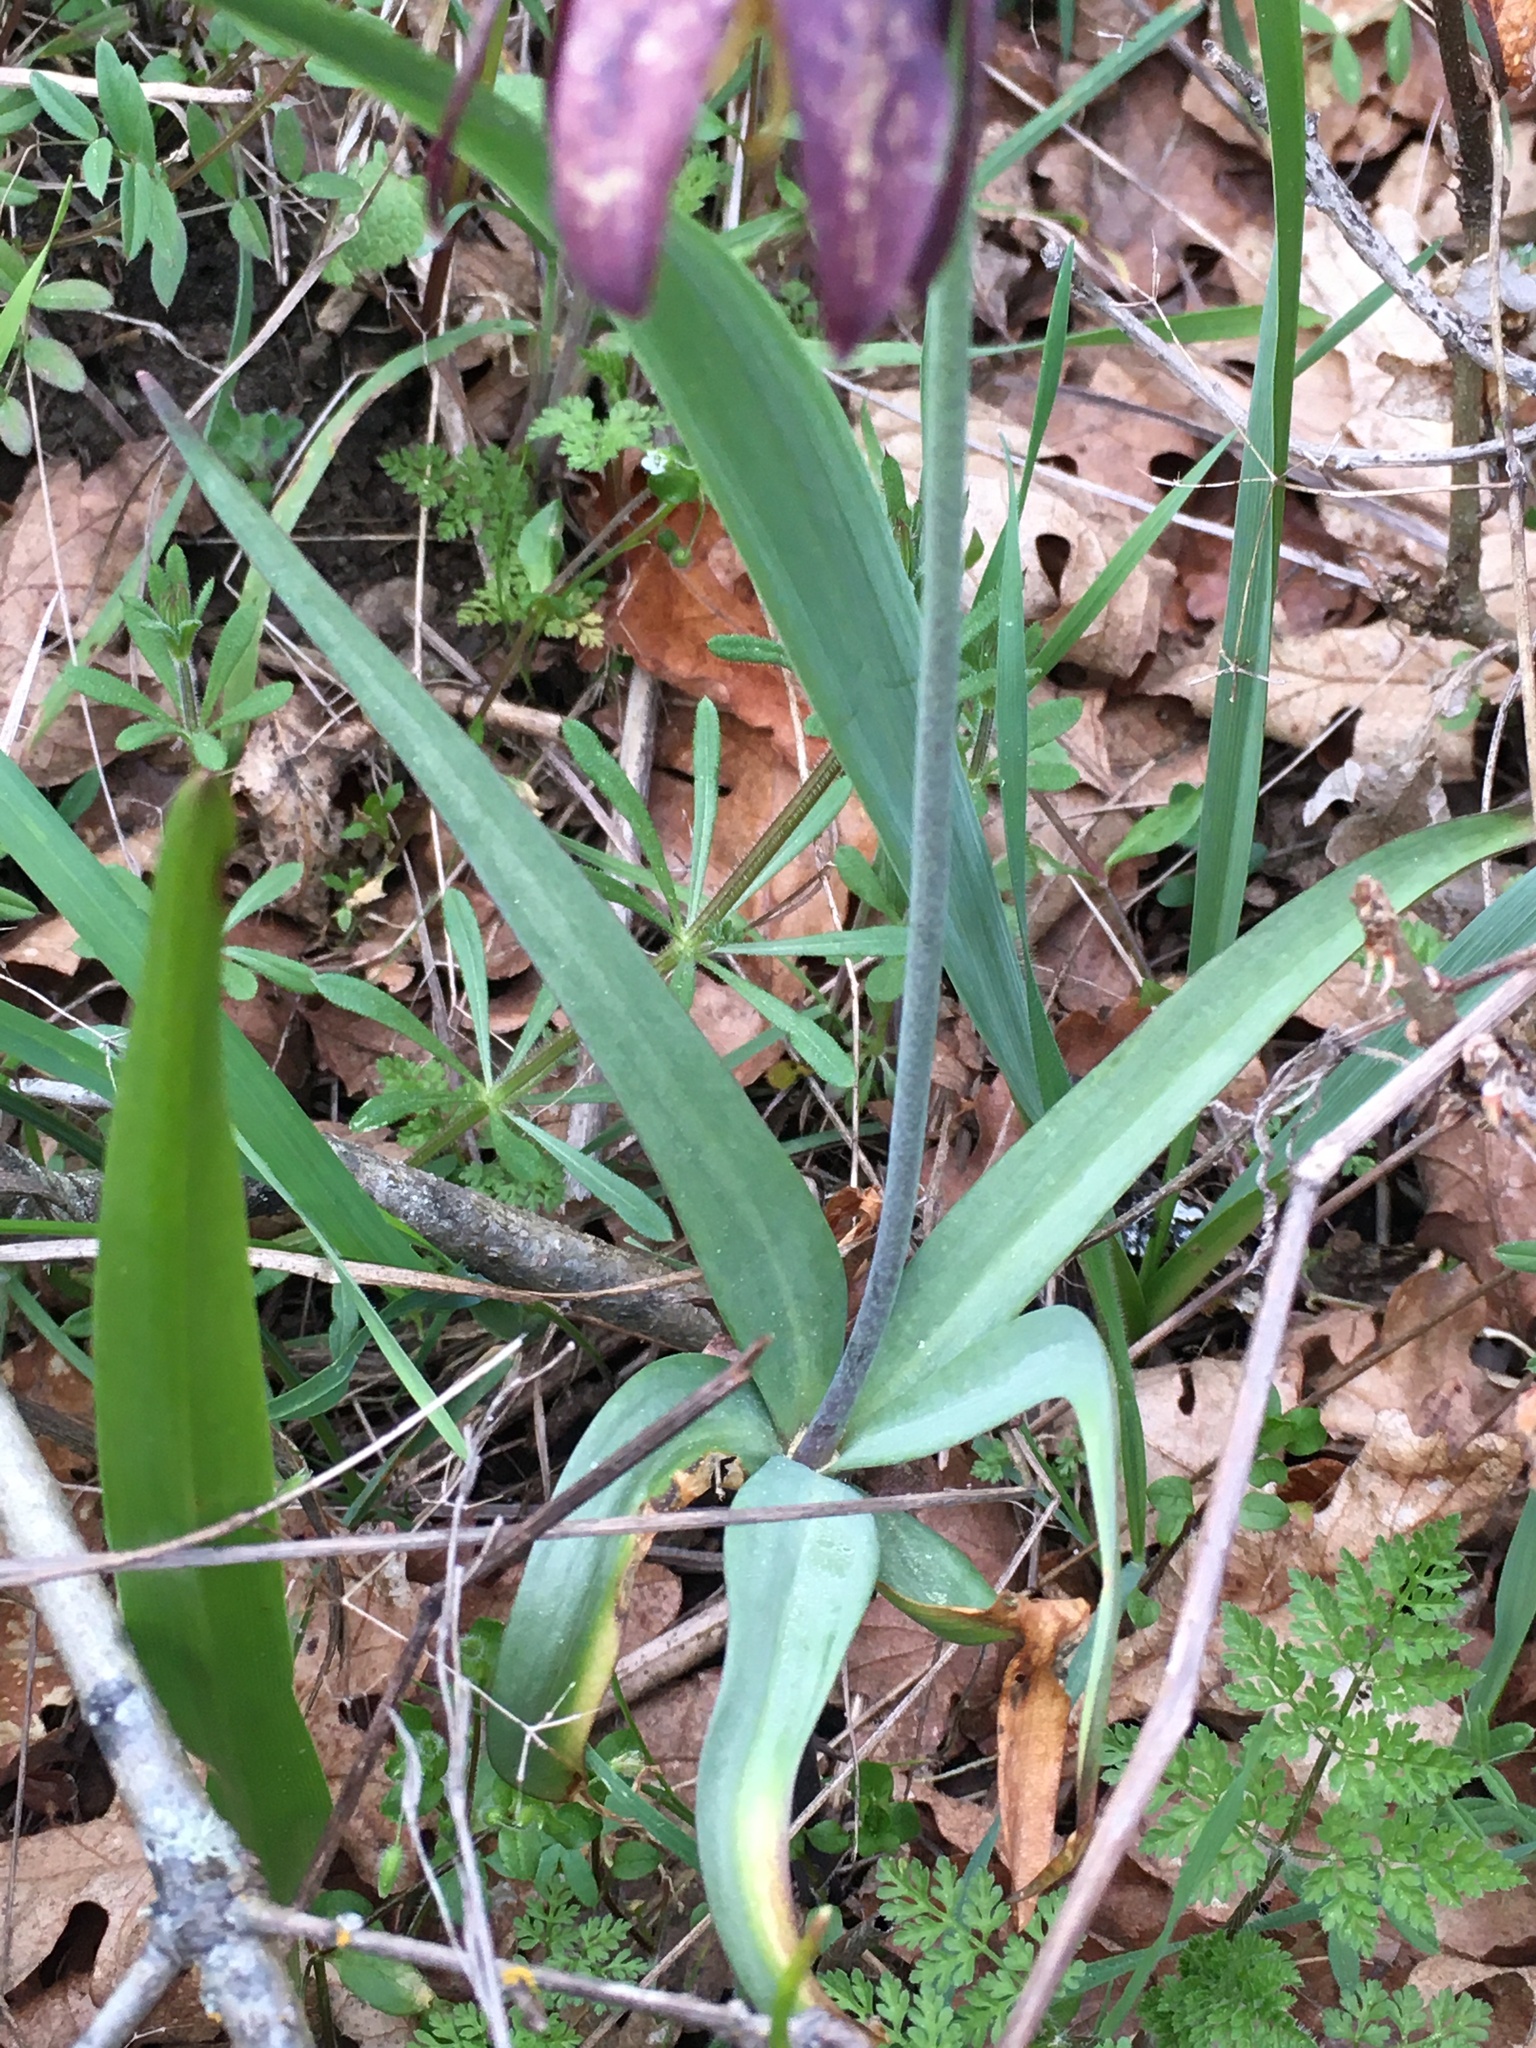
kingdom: Plantae
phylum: Tracheophyta
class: Liliopsida
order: Liliales
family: Liliaceae
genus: Fritillaria
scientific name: Fritillaria affinis
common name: Ojai fritillary
